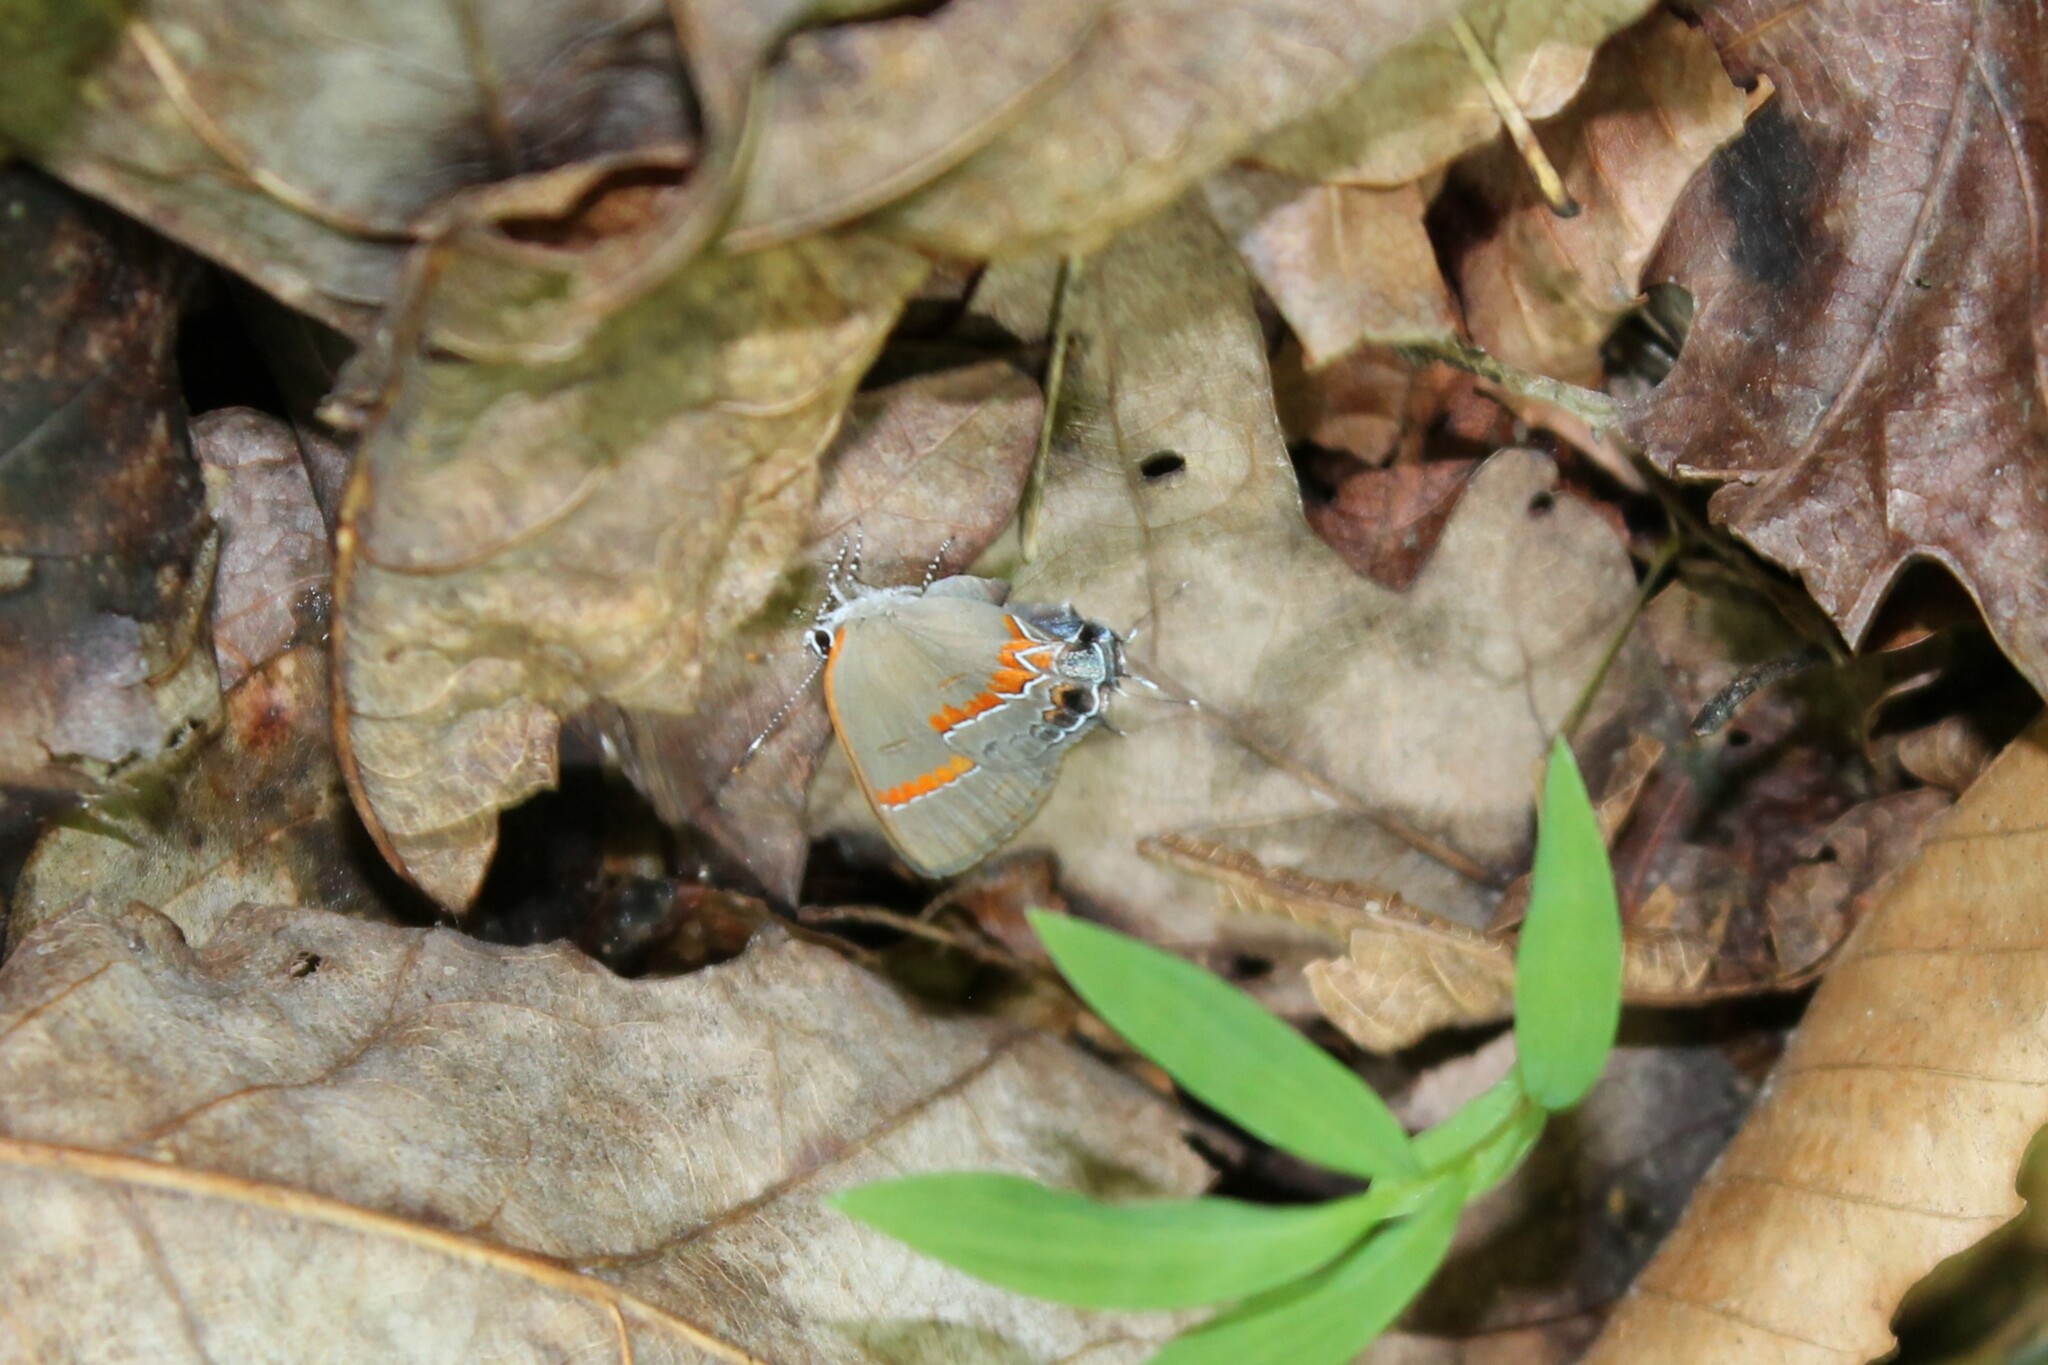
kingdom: Animalia
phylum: Arthropoda
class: Insecta
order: Lepidoptera
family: Lycaenidae
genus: Calycopis
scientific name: Calycopis cecrops
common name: Red-banded hairstreak
